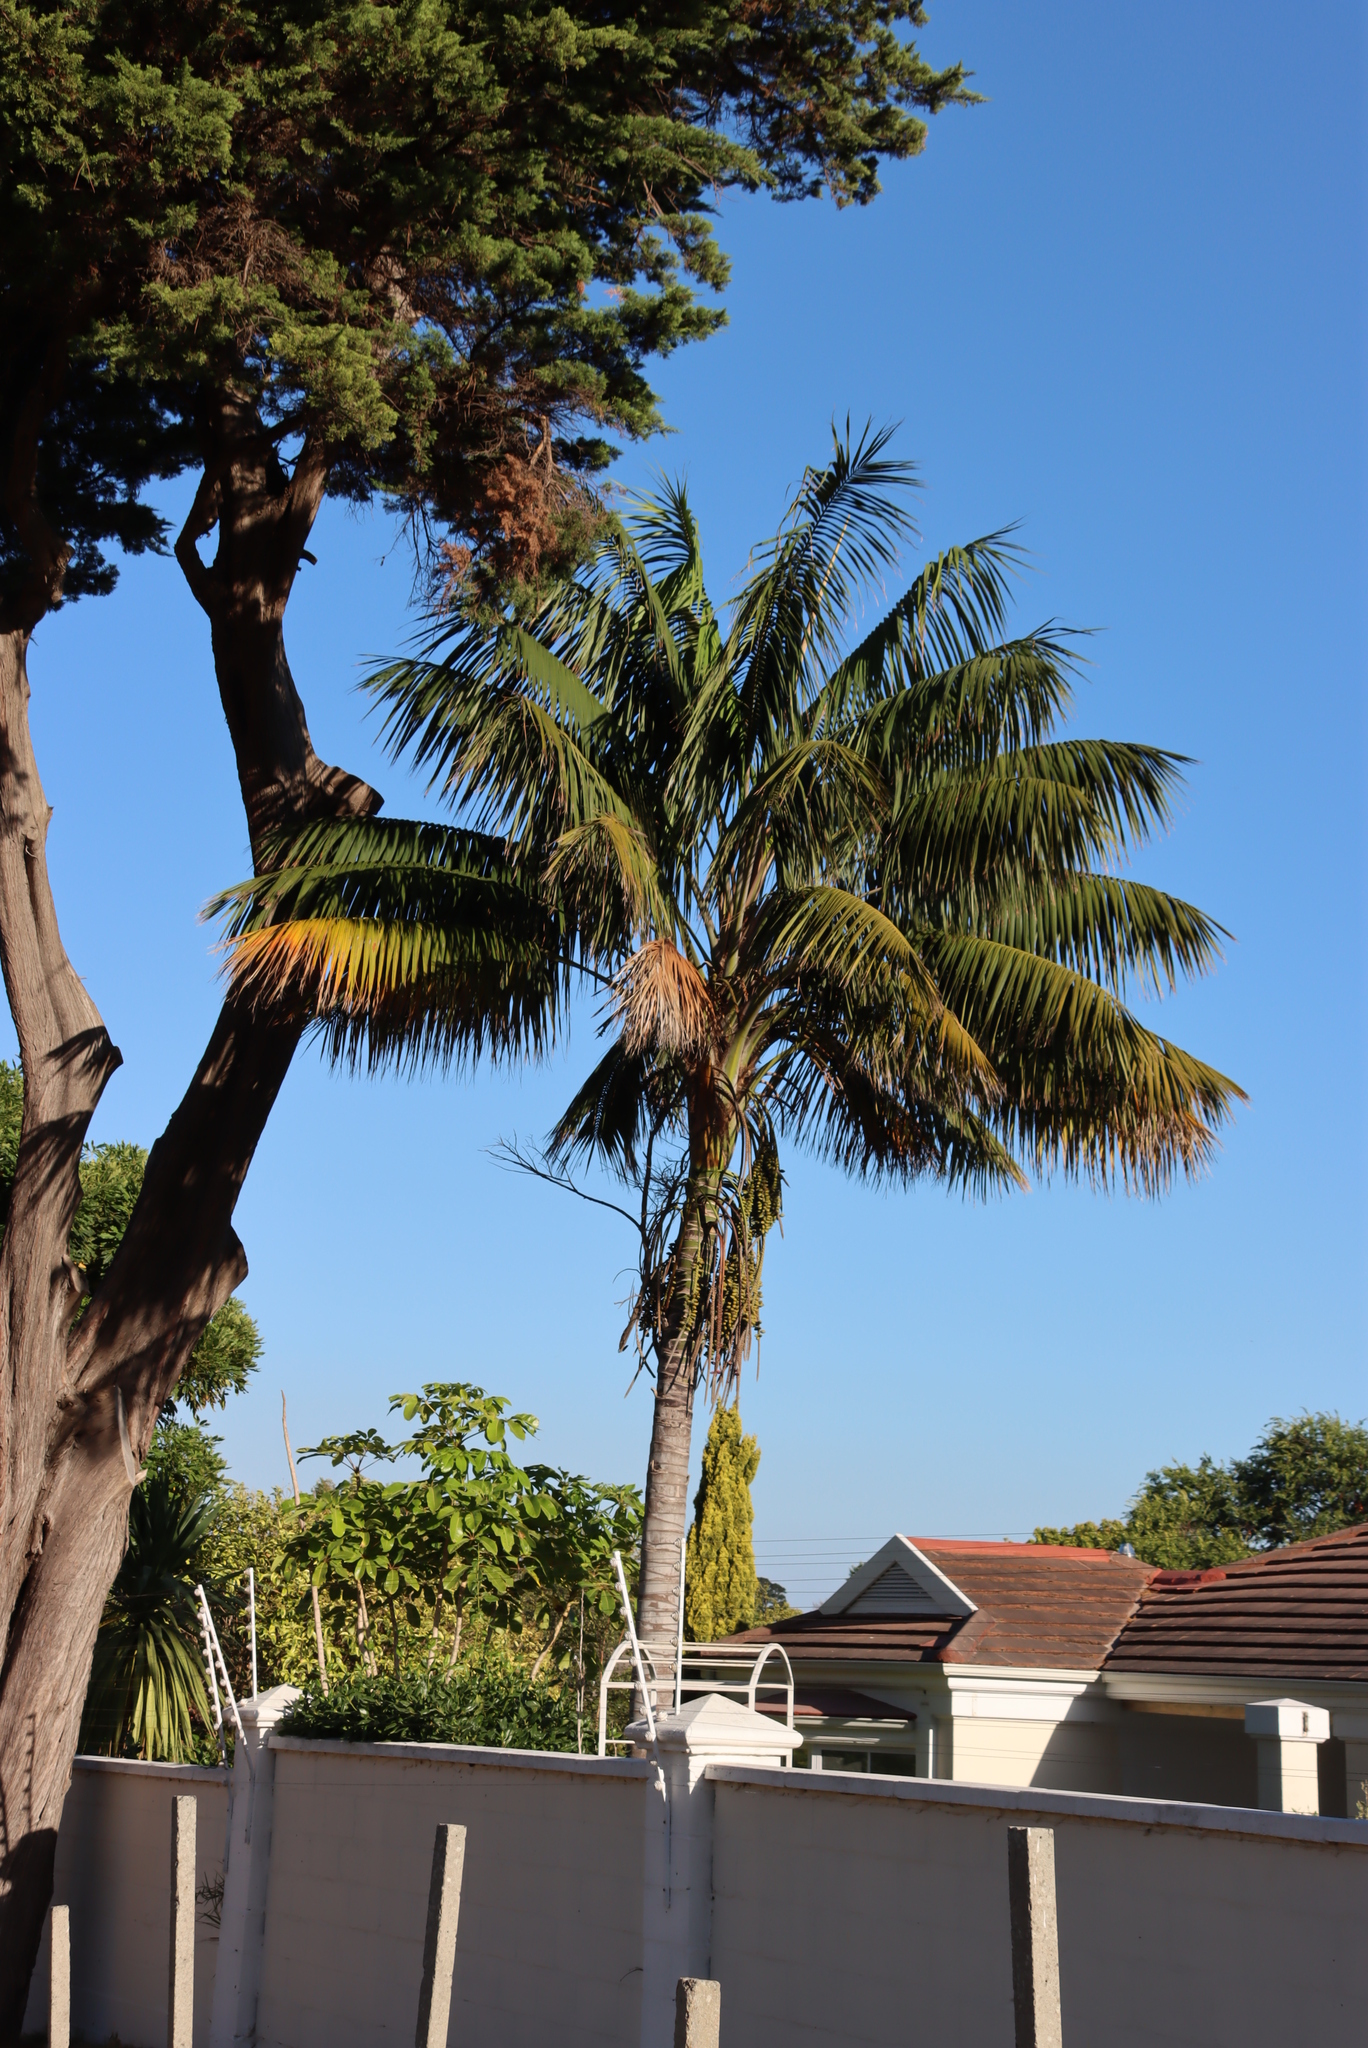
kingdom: Plantae
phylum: Tracheophyta
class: Liliopsida
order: Arecales
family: Arecaceae
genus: Howea
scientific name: Howea forsteriana
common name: Kentia palm
